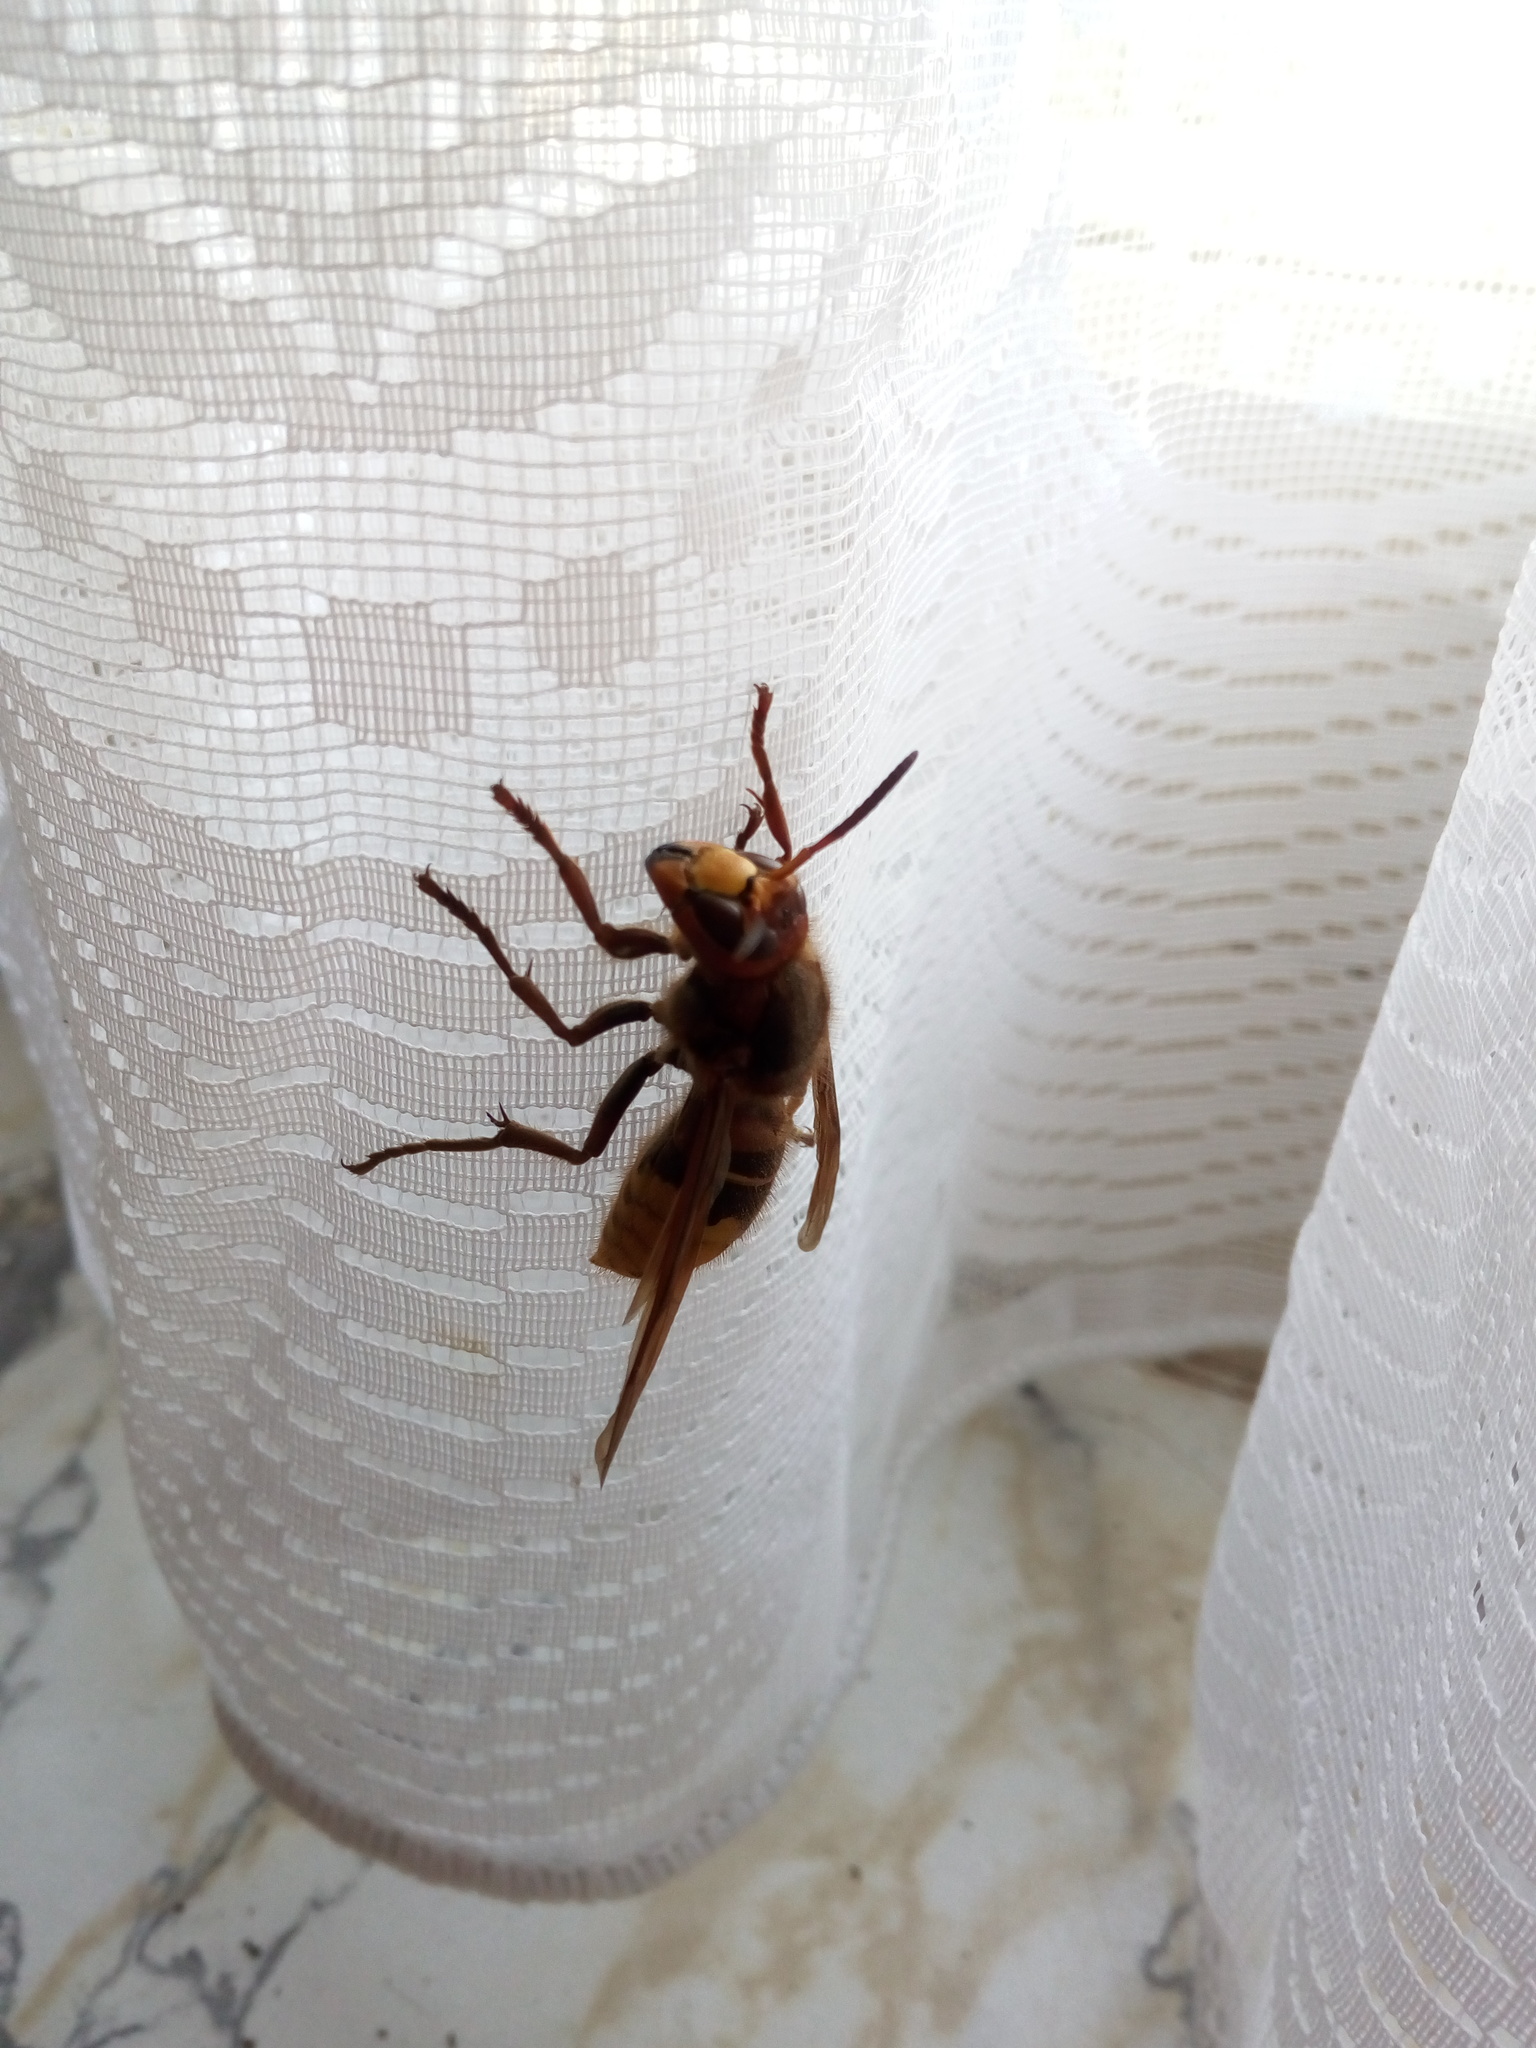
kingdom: Animalia
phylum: Arthropoda
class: Insecta
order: Hymenoptera
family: Vespidae
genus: Vespa
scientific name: Vespa crabro
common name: Hornet
